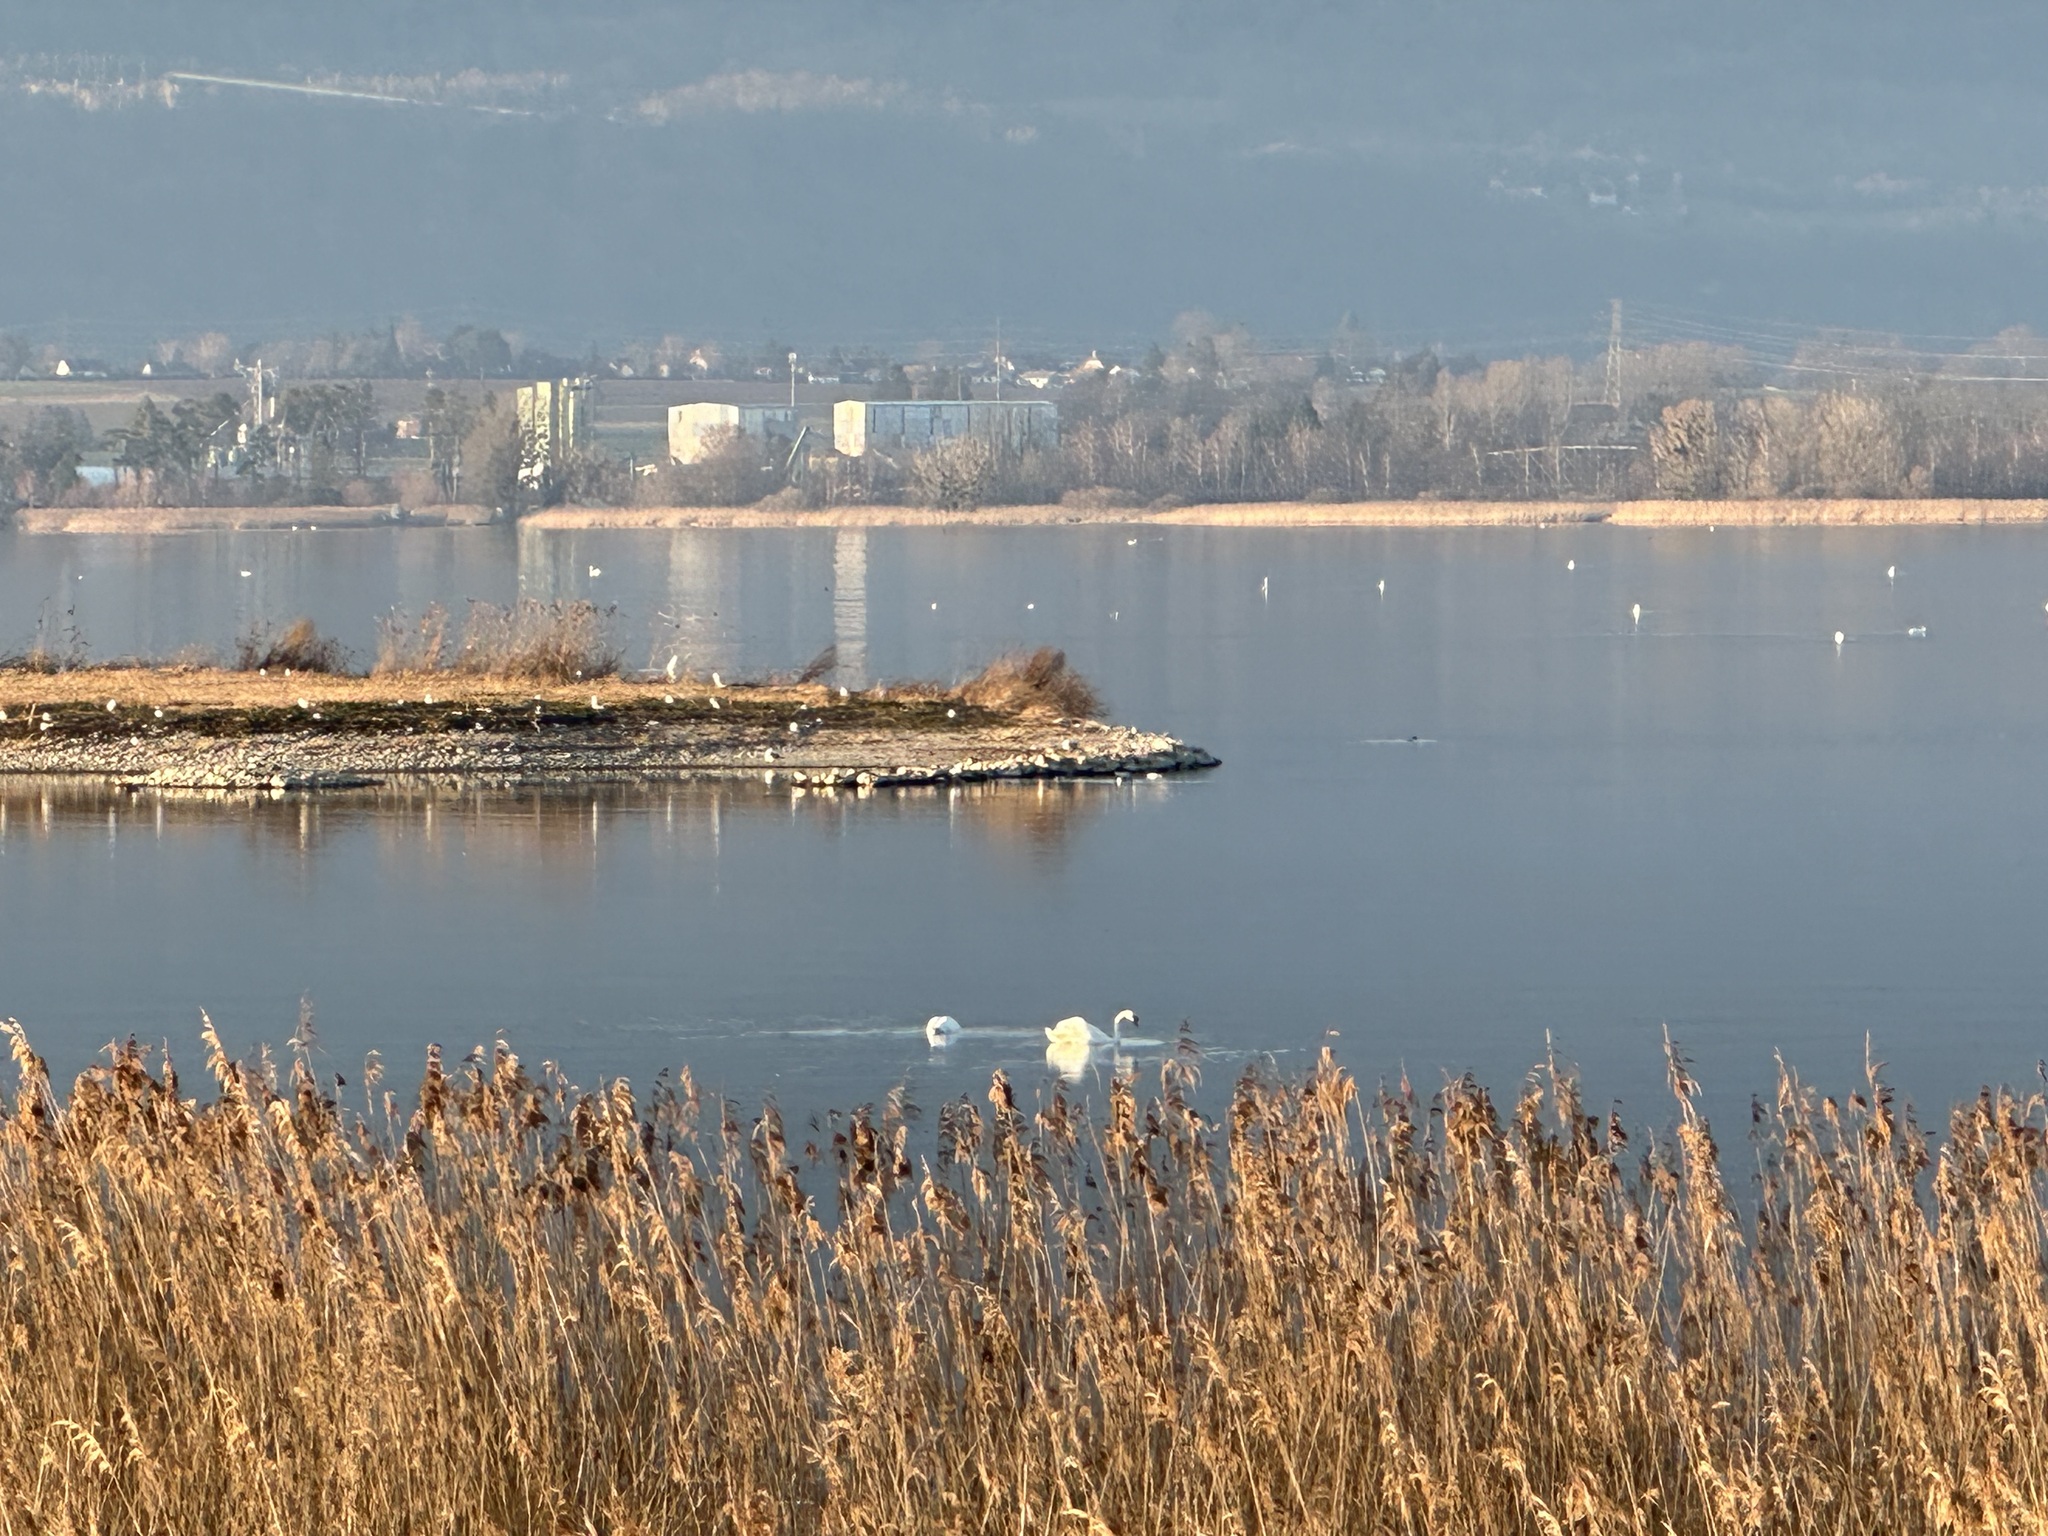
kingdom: Animalia
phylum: Chordata
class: Aves
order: Anseriformes
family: Anatidae
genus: Cygnus
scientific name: Cygnus olor
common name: Mute swan
